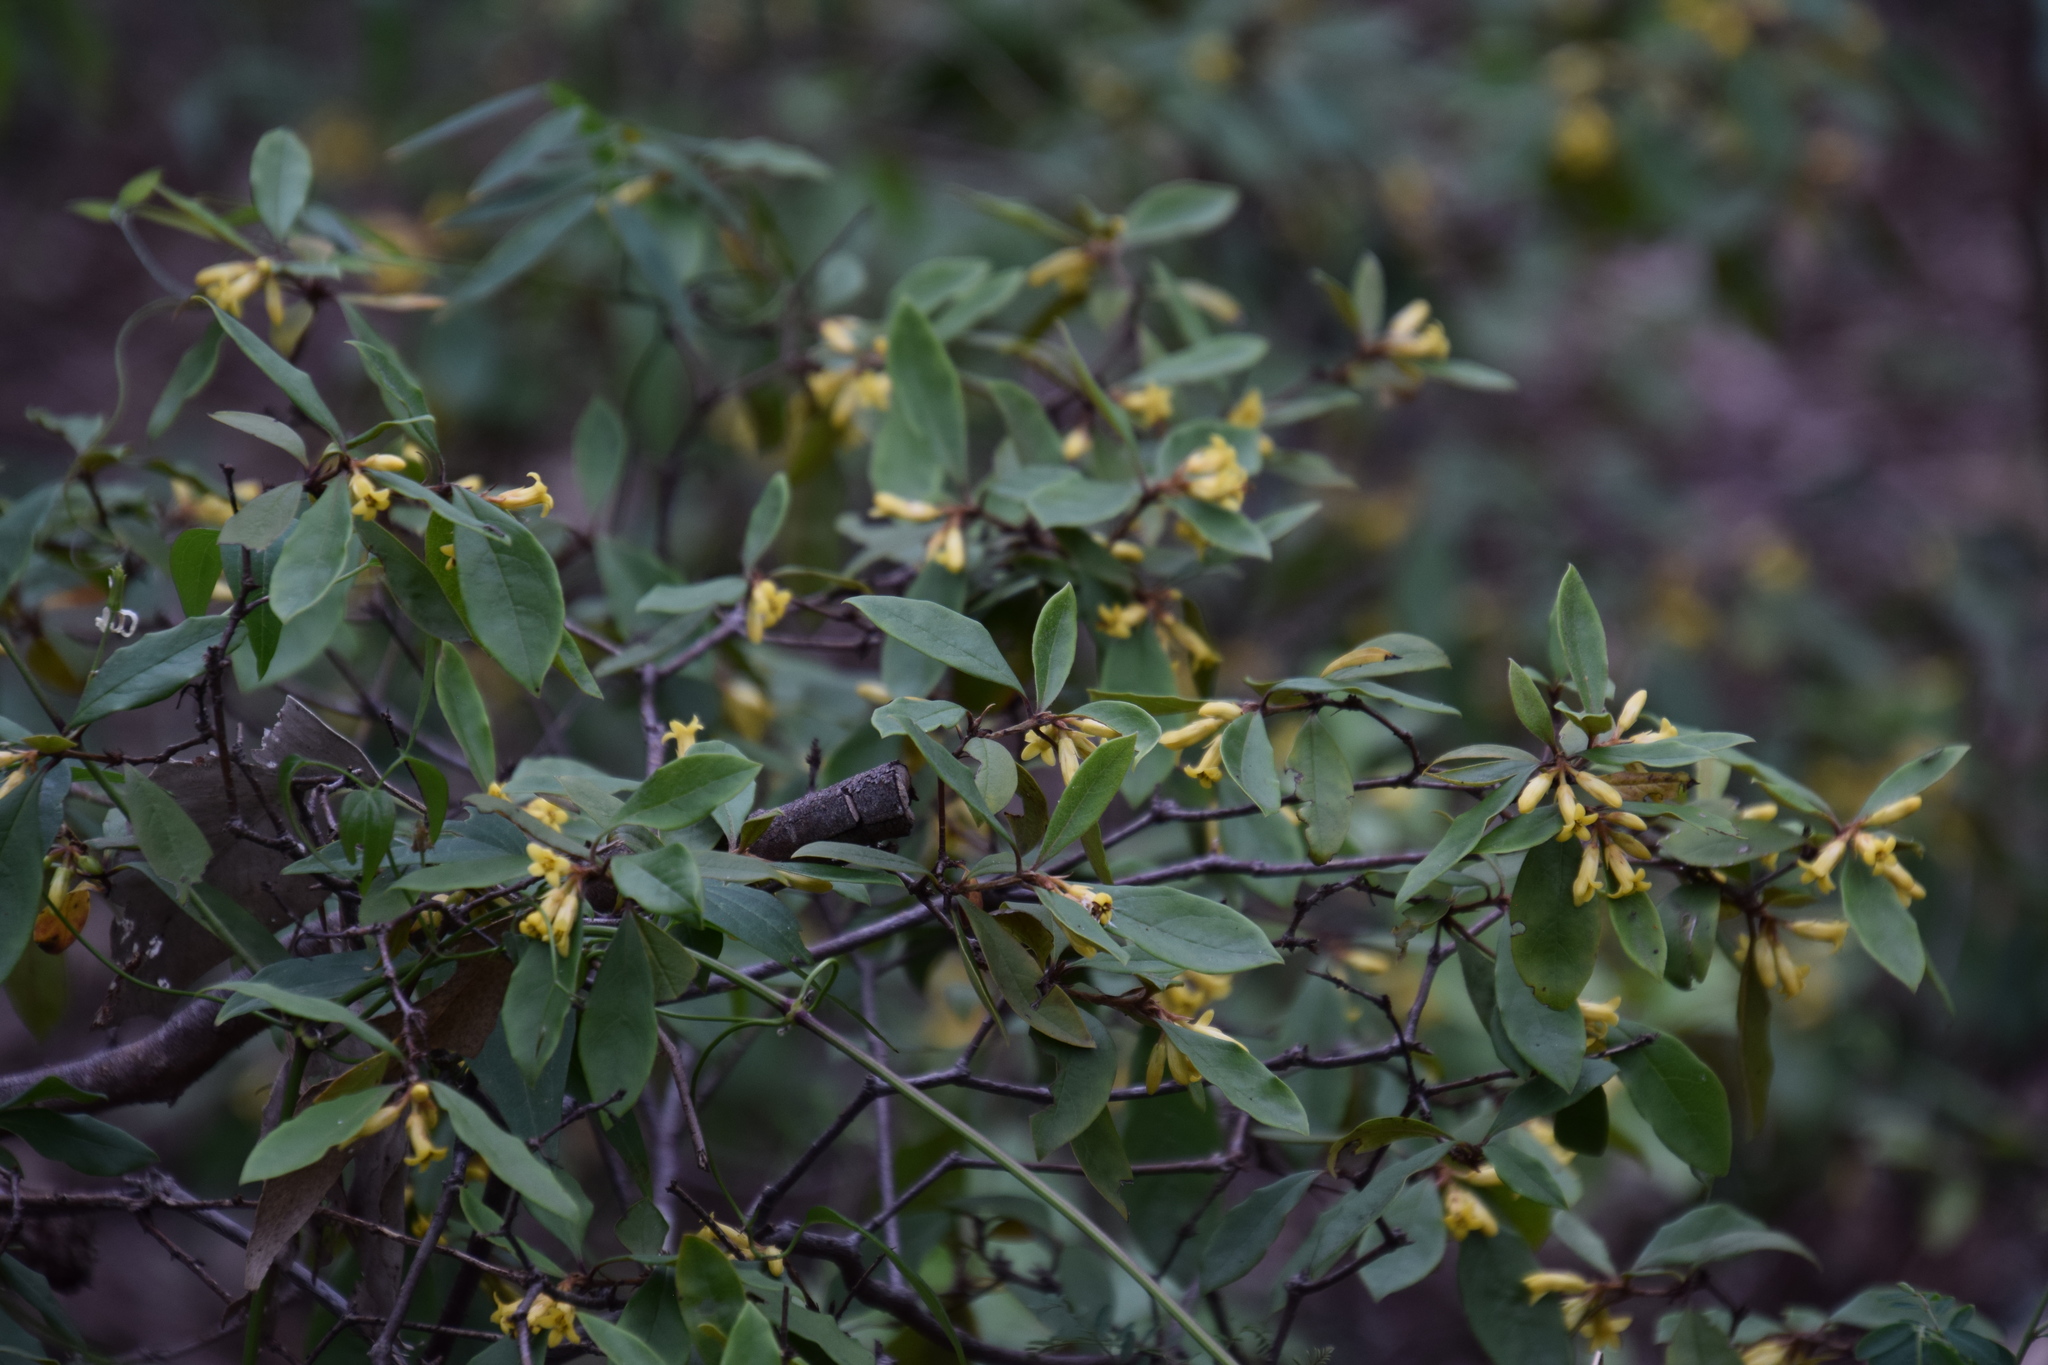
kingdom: Plantae
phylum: Tracheophyta
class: Magnoliopsida
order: Apiales
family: Pittosporaceae
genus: Pittosporum
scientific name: Pittosporum revolutum
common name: Brisbane-laurel
